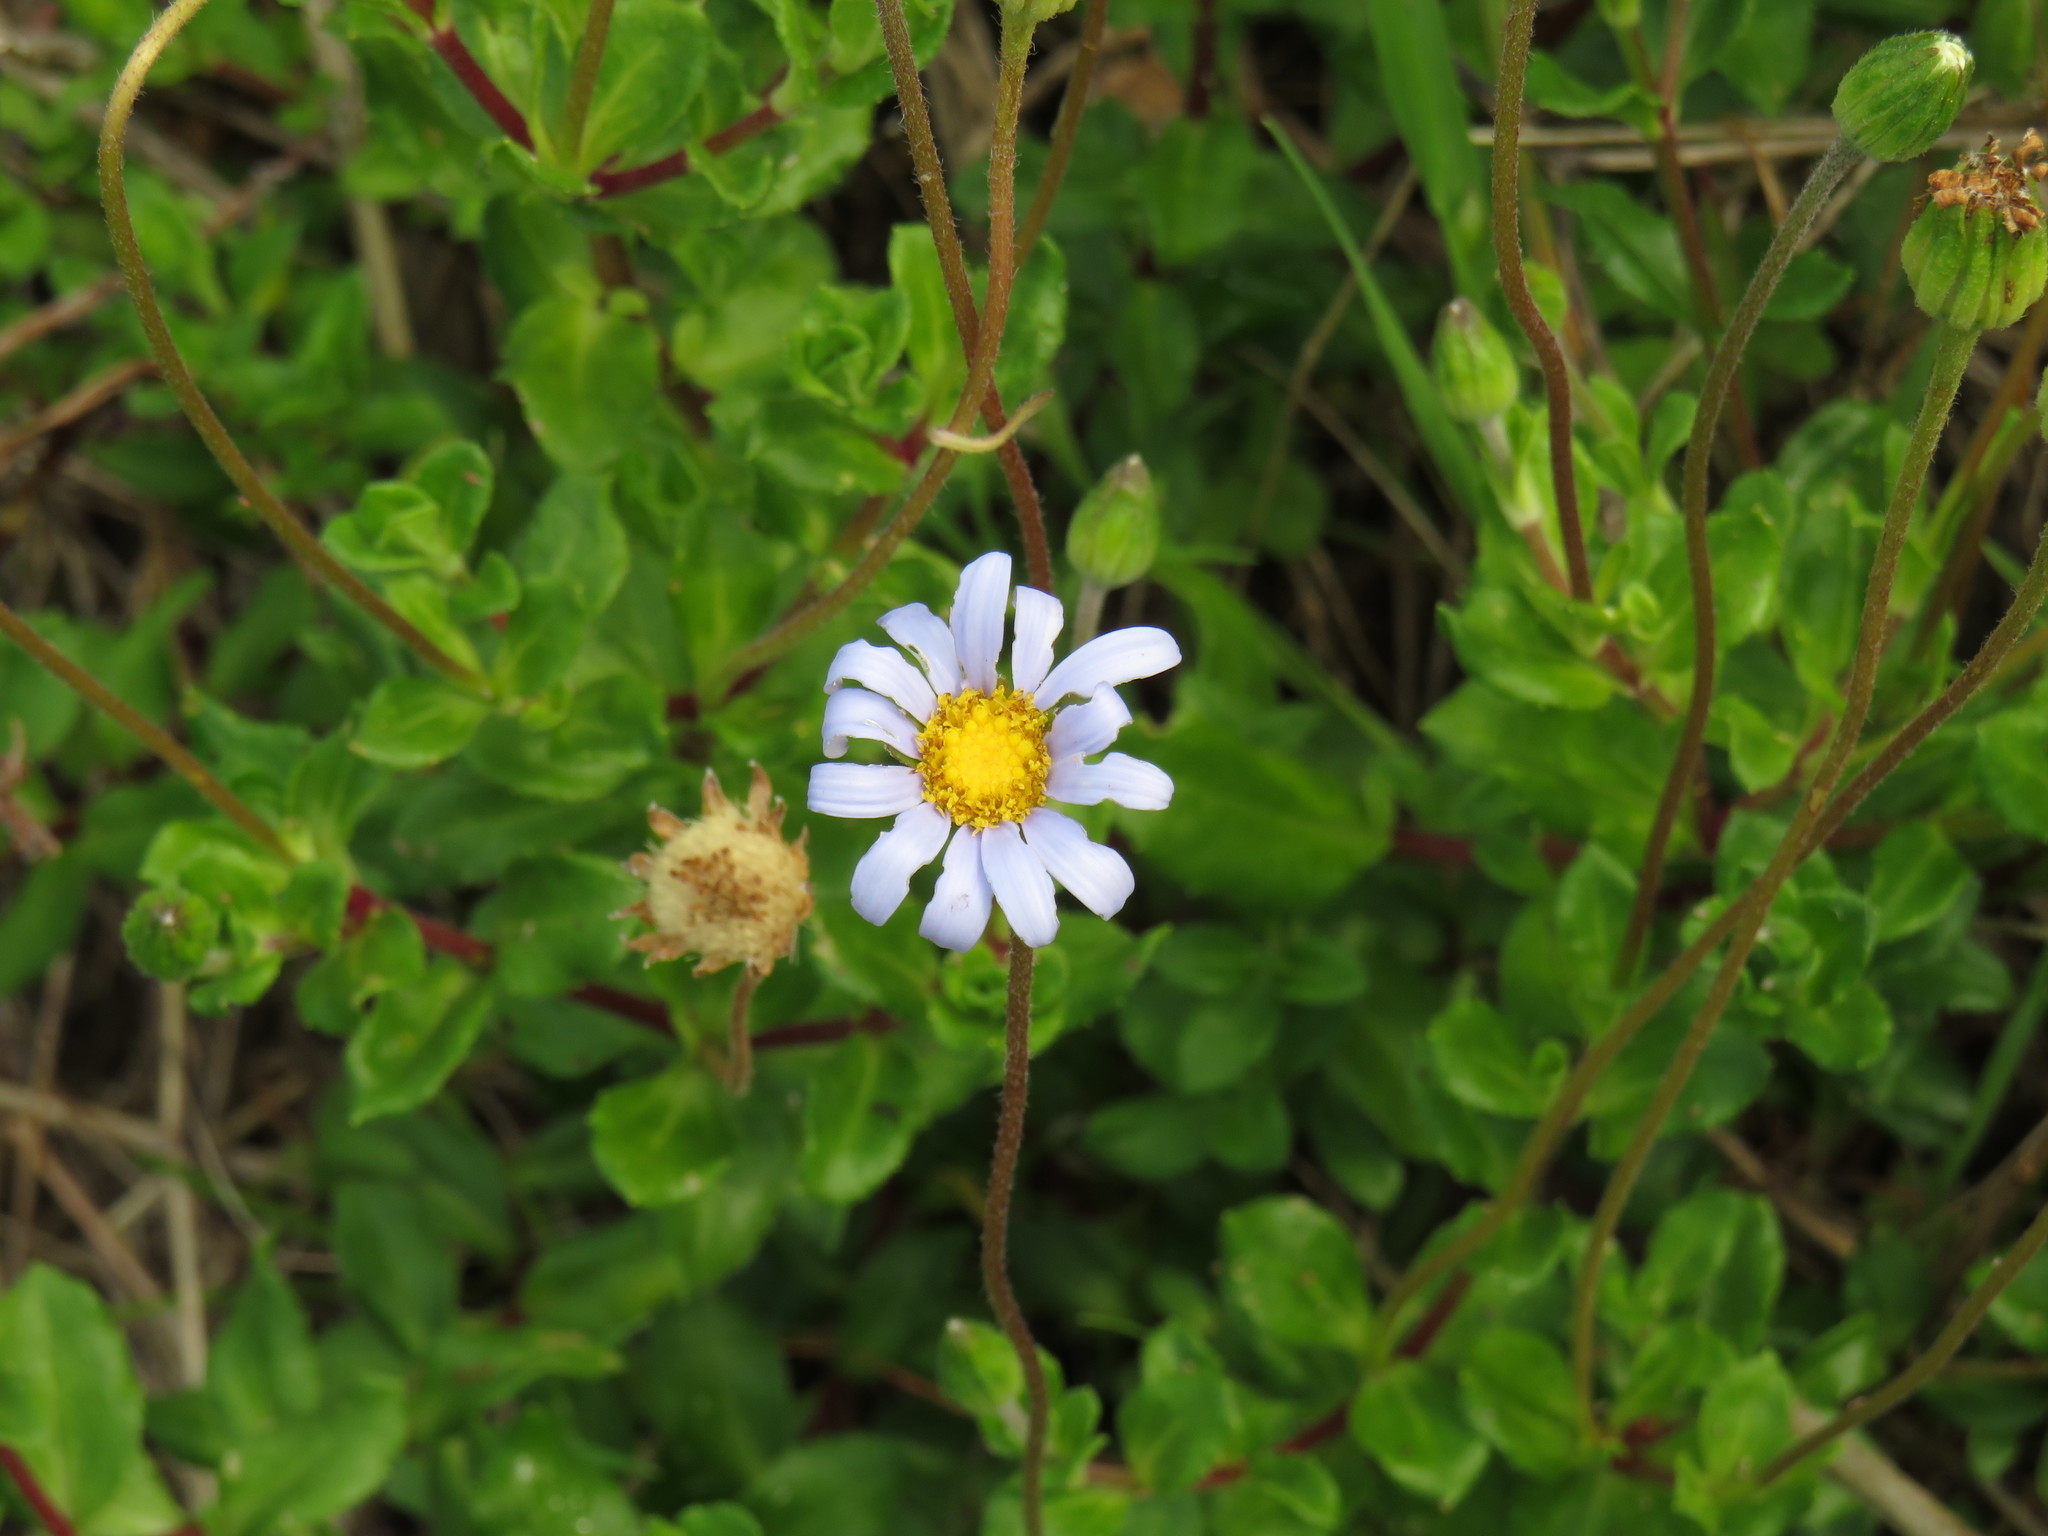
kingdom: Plantae
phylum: Tracheophyta
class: Magnoliopsida
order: Asterales
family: Asteraceae
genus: Felicia
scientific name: Felicia amelloides
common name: Blue marguerite
